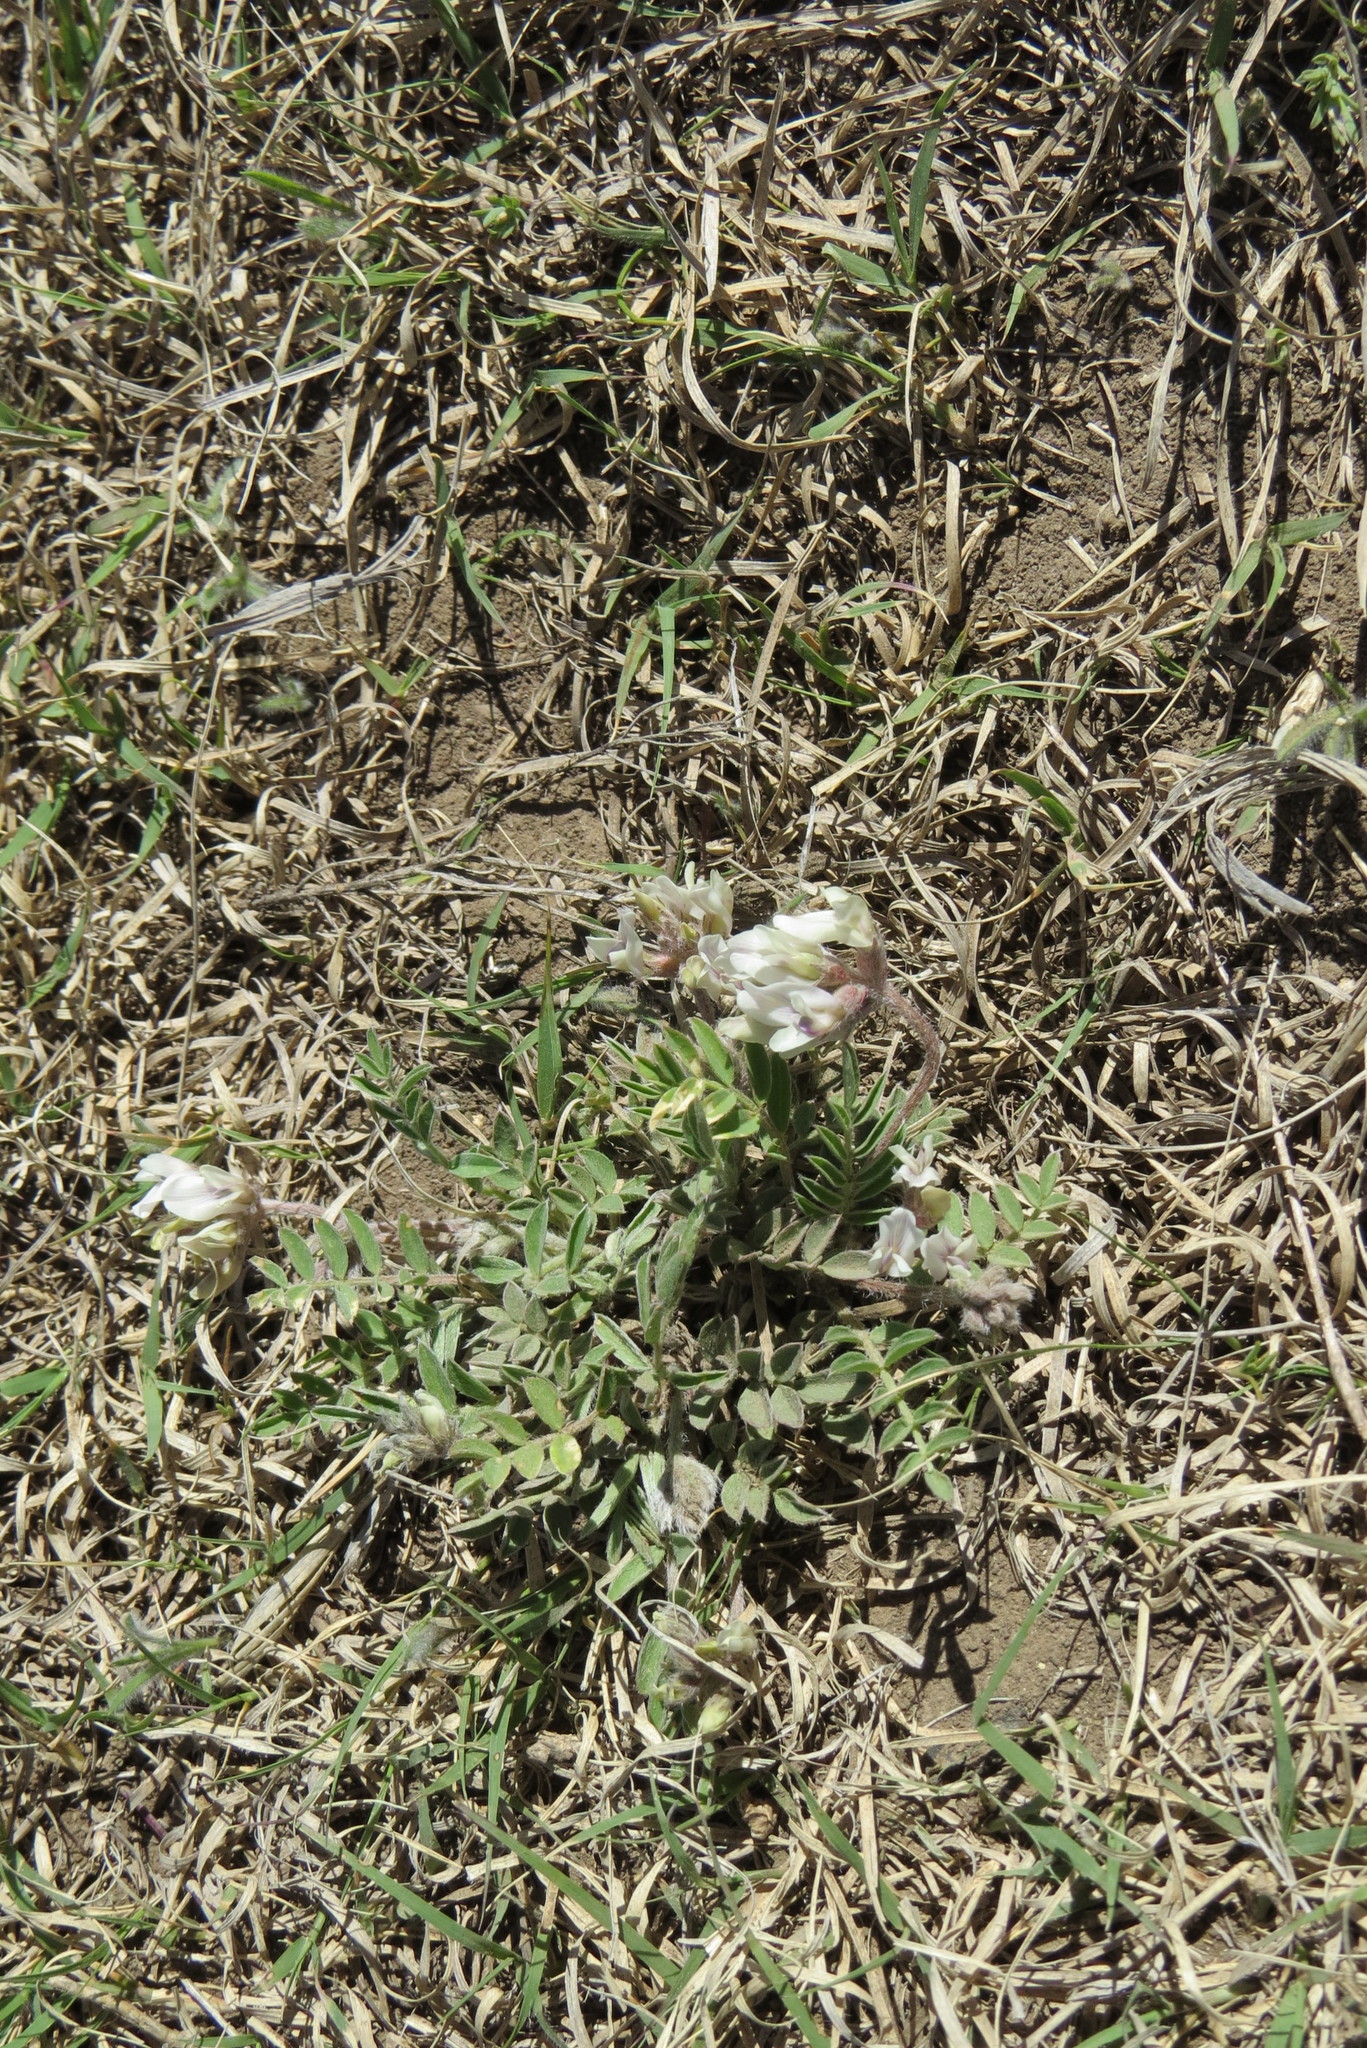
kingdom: Plantae
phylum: Tracheophyta
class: Magnoliopsida
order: Fabales
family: Fabaceae
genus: Astragalus
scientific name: Astragalus lotiflorus
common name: Lotus milk-vetch
